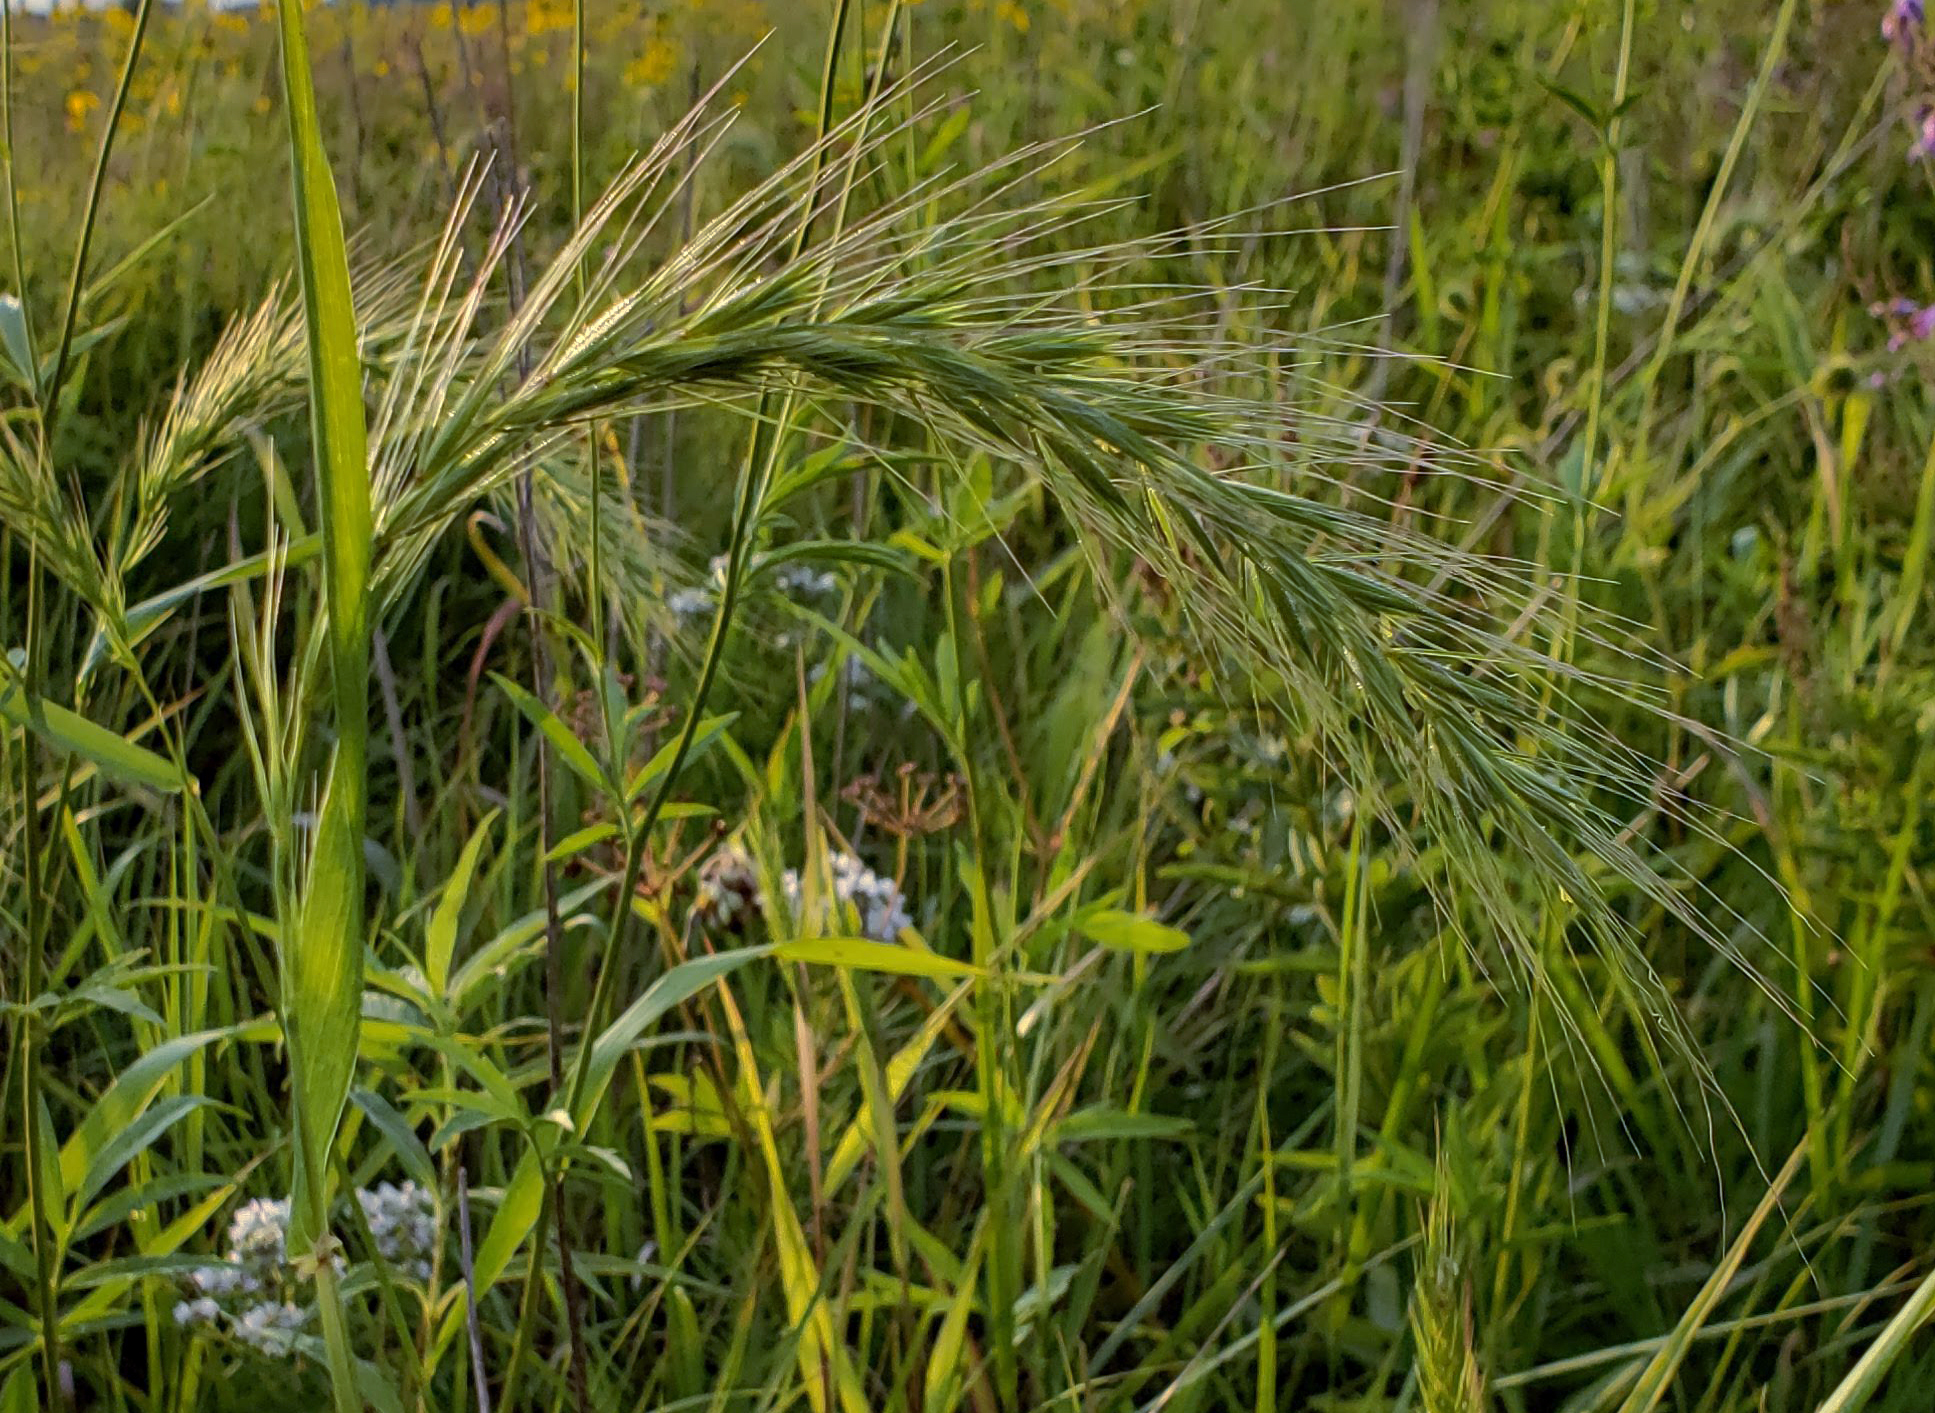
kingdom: Plantae
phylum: Tracheophyta
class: Liliopsida
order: Poales
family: Poaceae
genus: Elymus
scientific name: Elymus canadensis
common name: Canada wild rye
